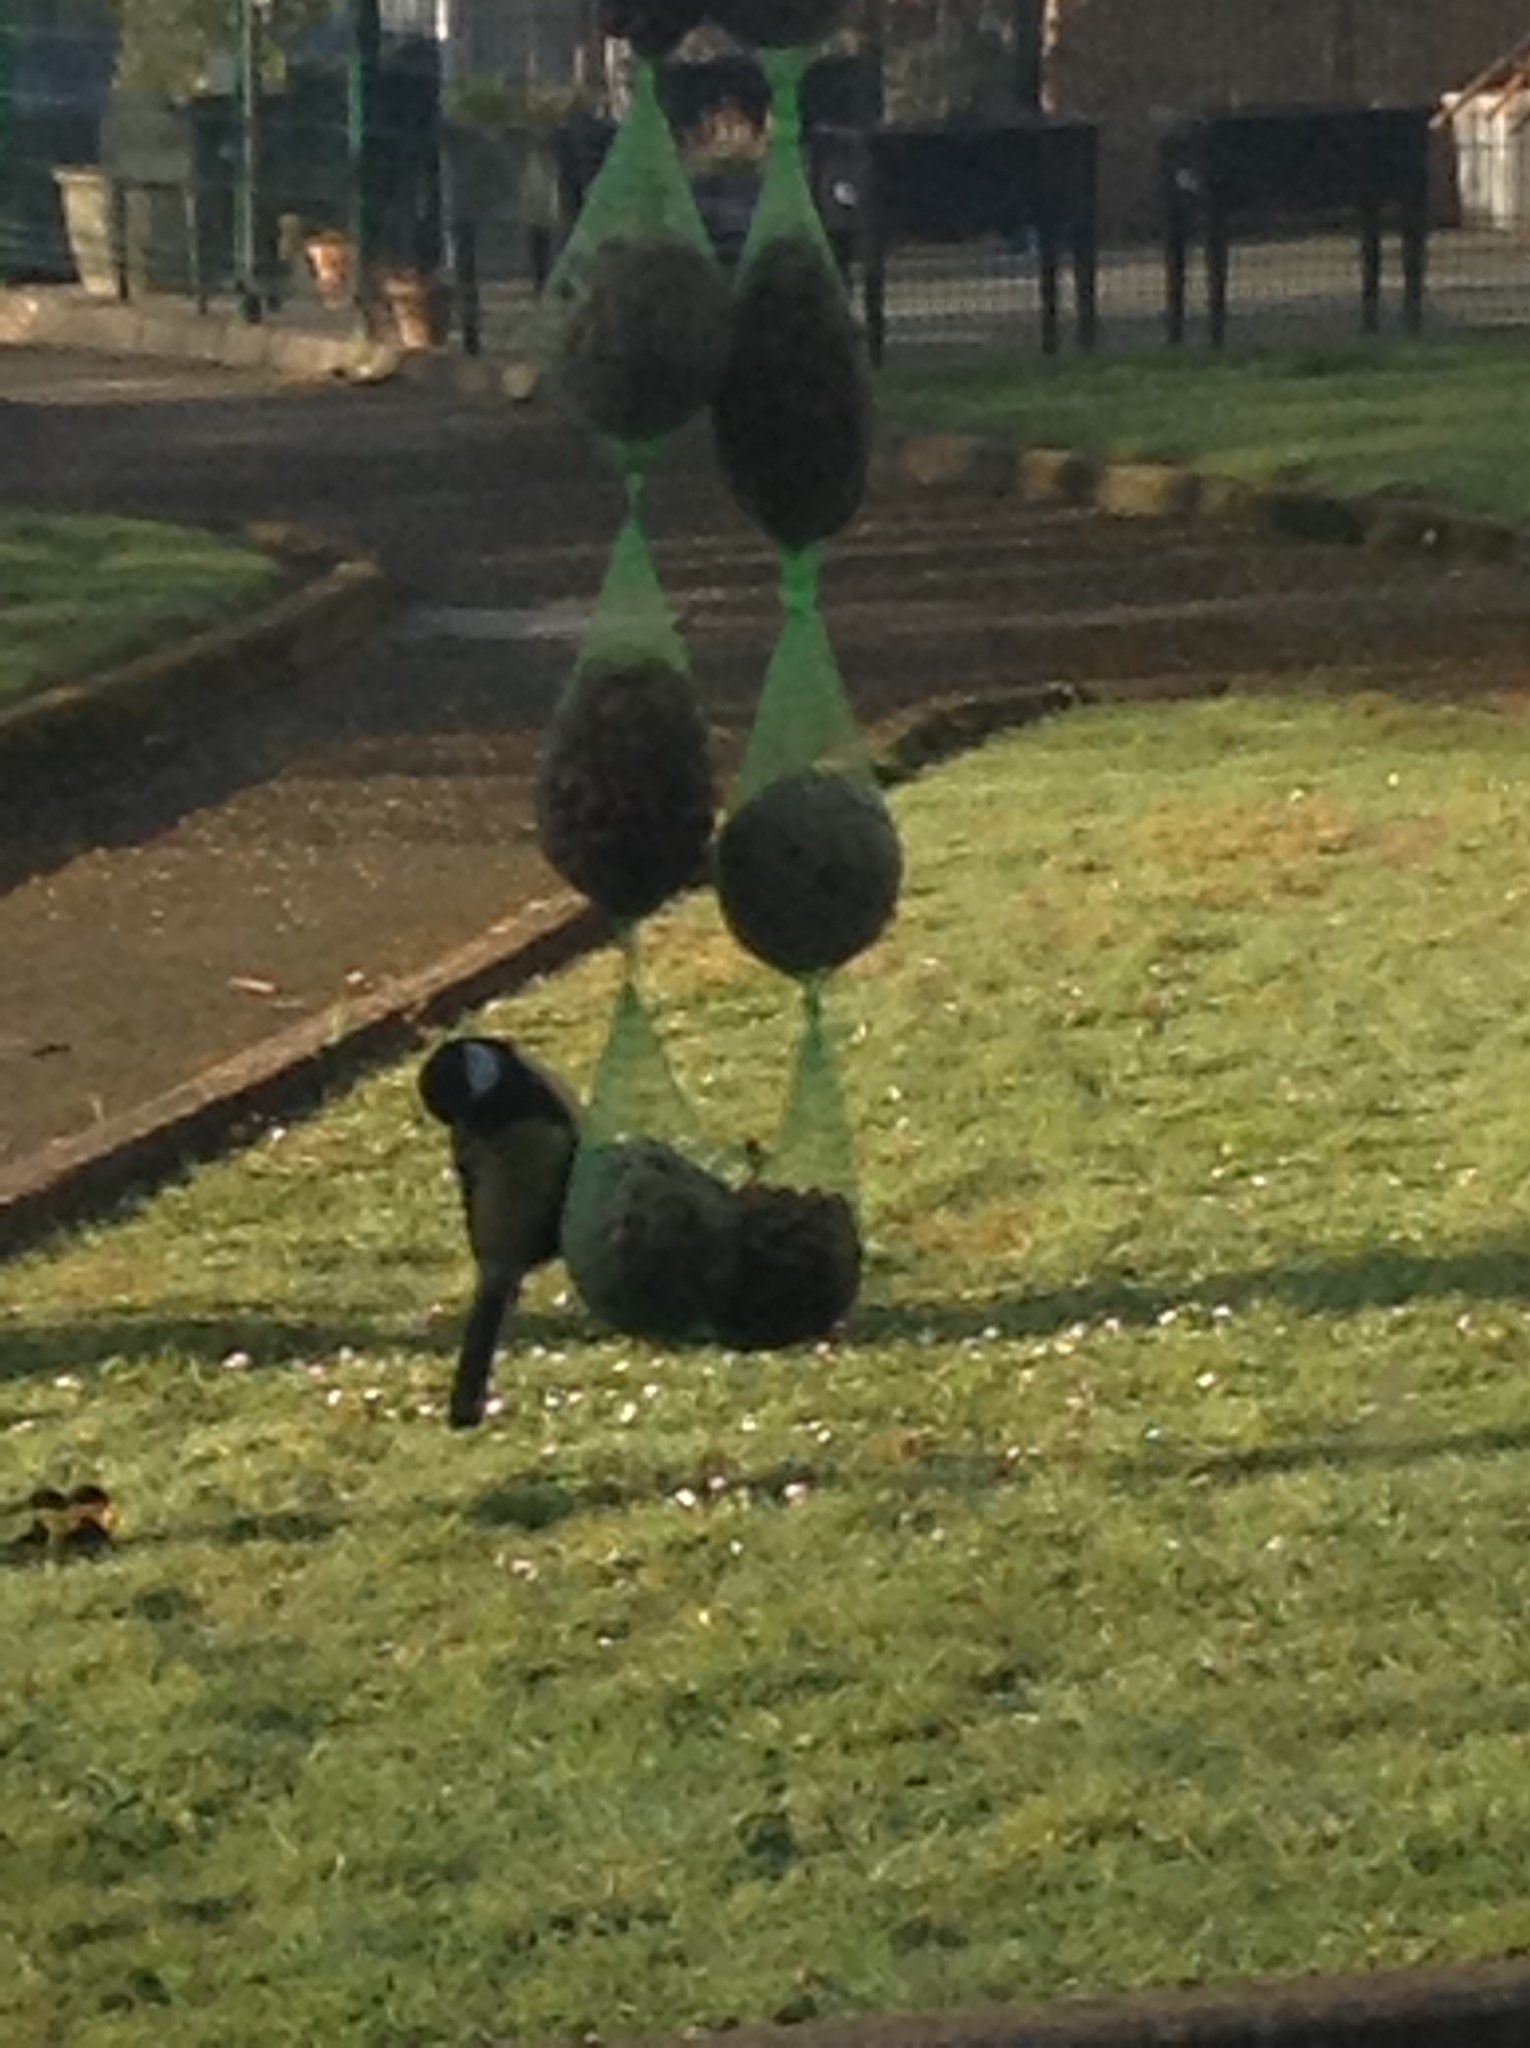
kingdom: Animalia
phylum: Chordata
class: Aves
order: Passeriformes
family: Paridae
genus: Parus
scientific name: Parus major
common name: Great tit
